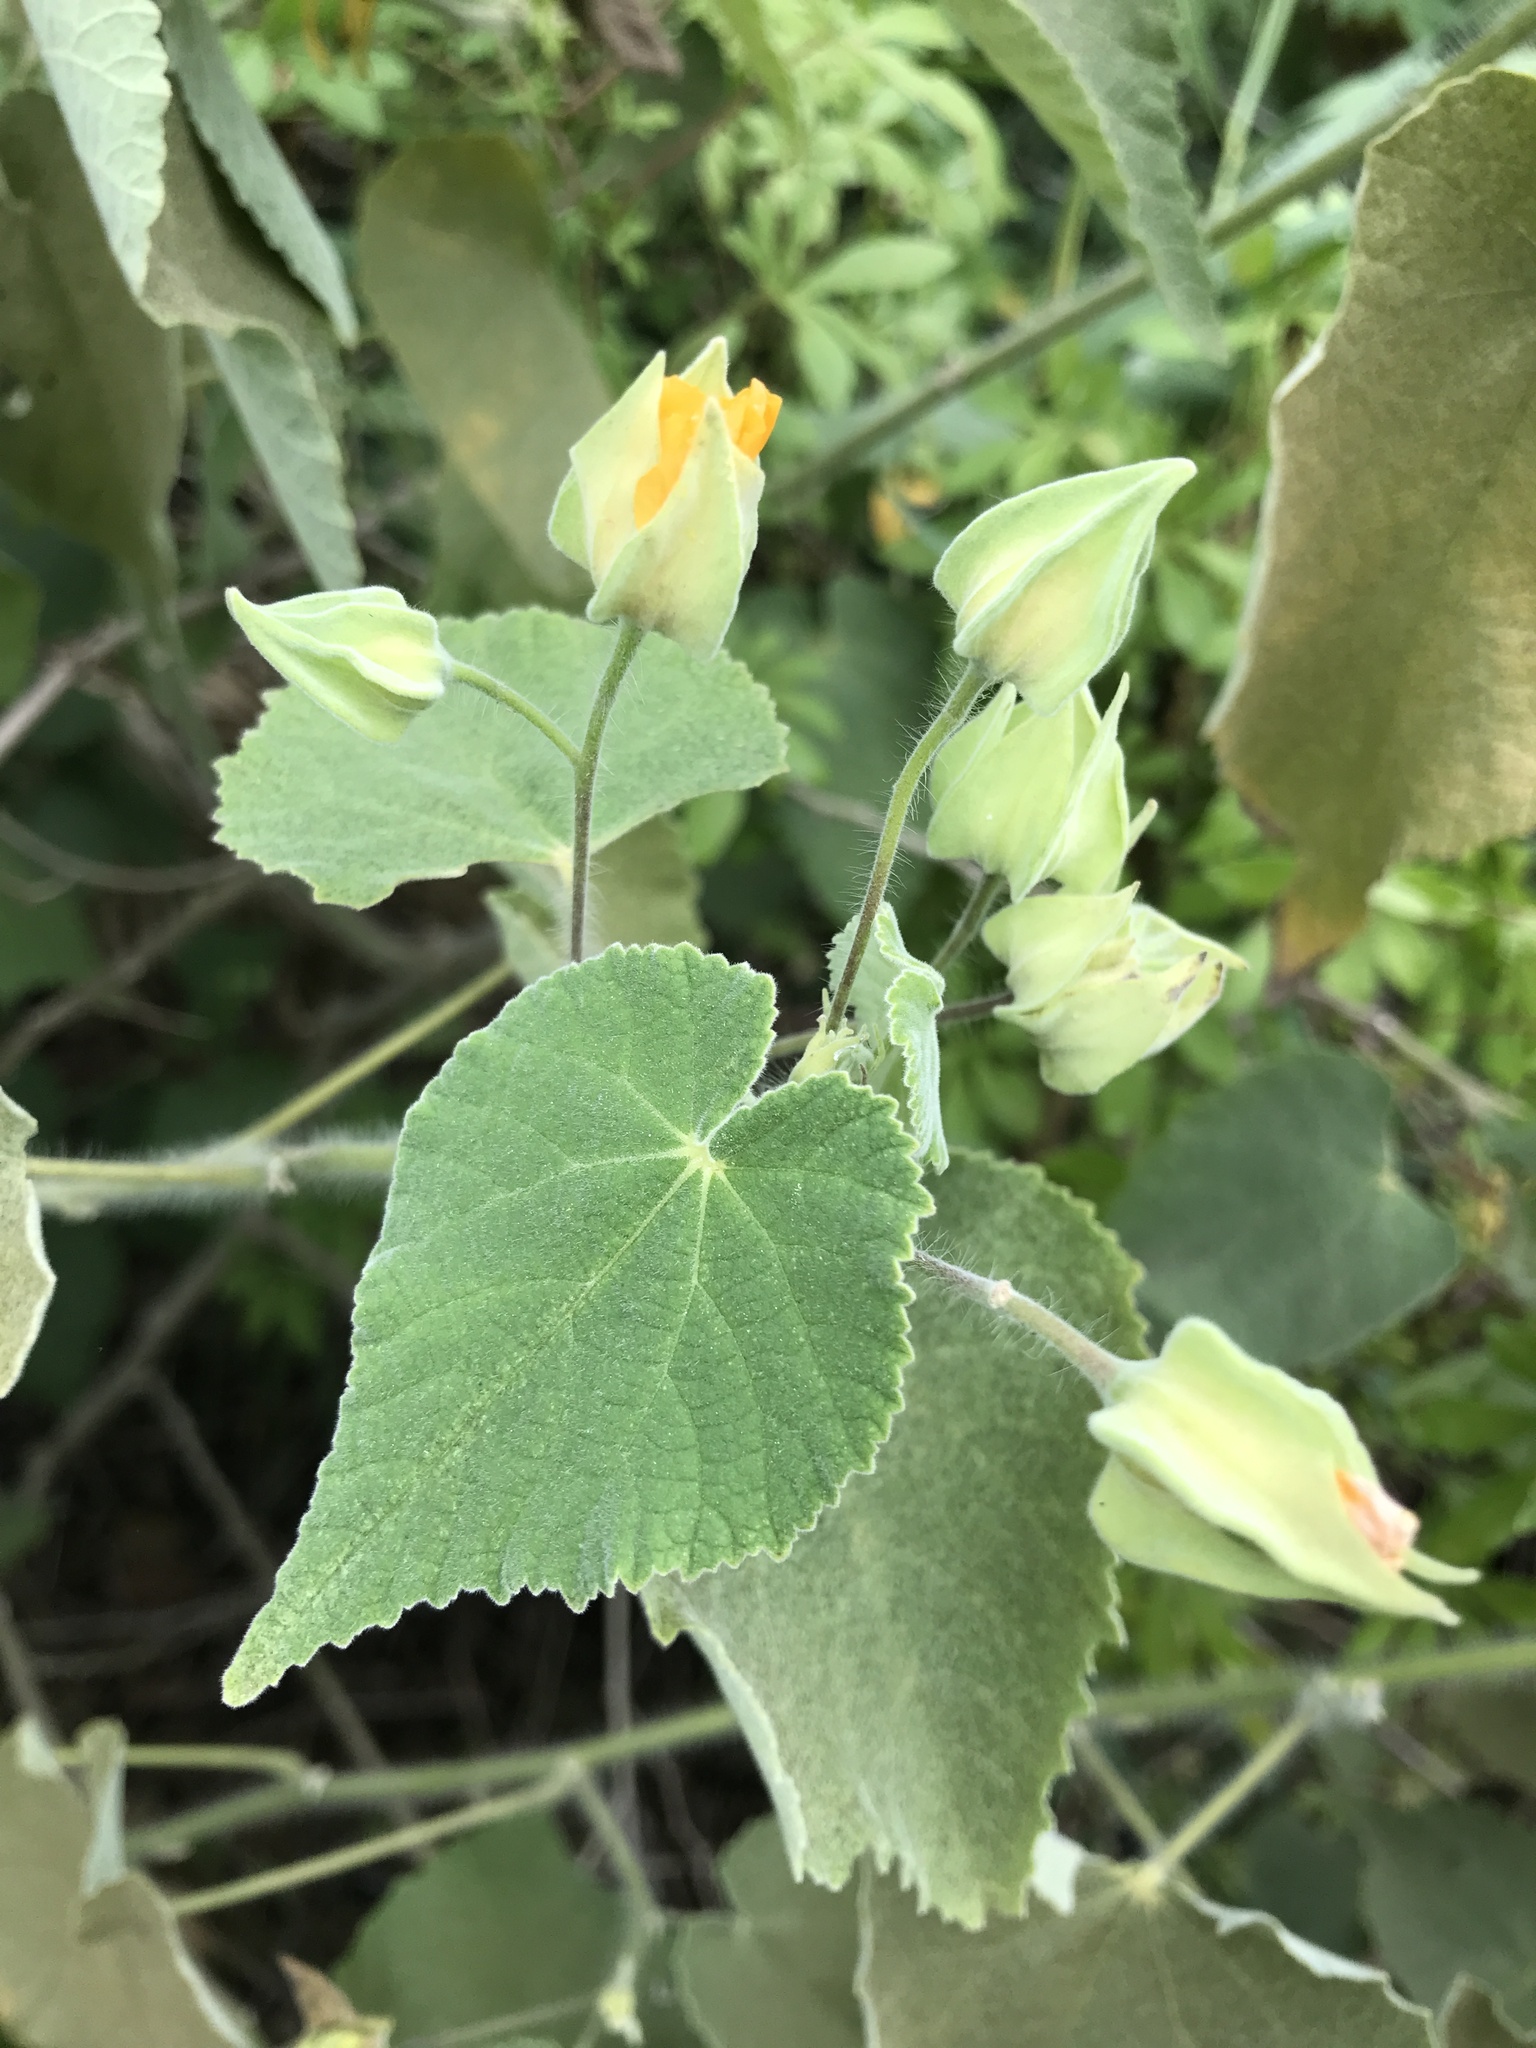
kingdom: Plantae
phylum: Tracheophyta
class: Magnoliopsida
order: Malvales
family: Malvaceae
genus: Abutilon
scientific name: Abutilon grandifolium
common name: Hairy abutilon
